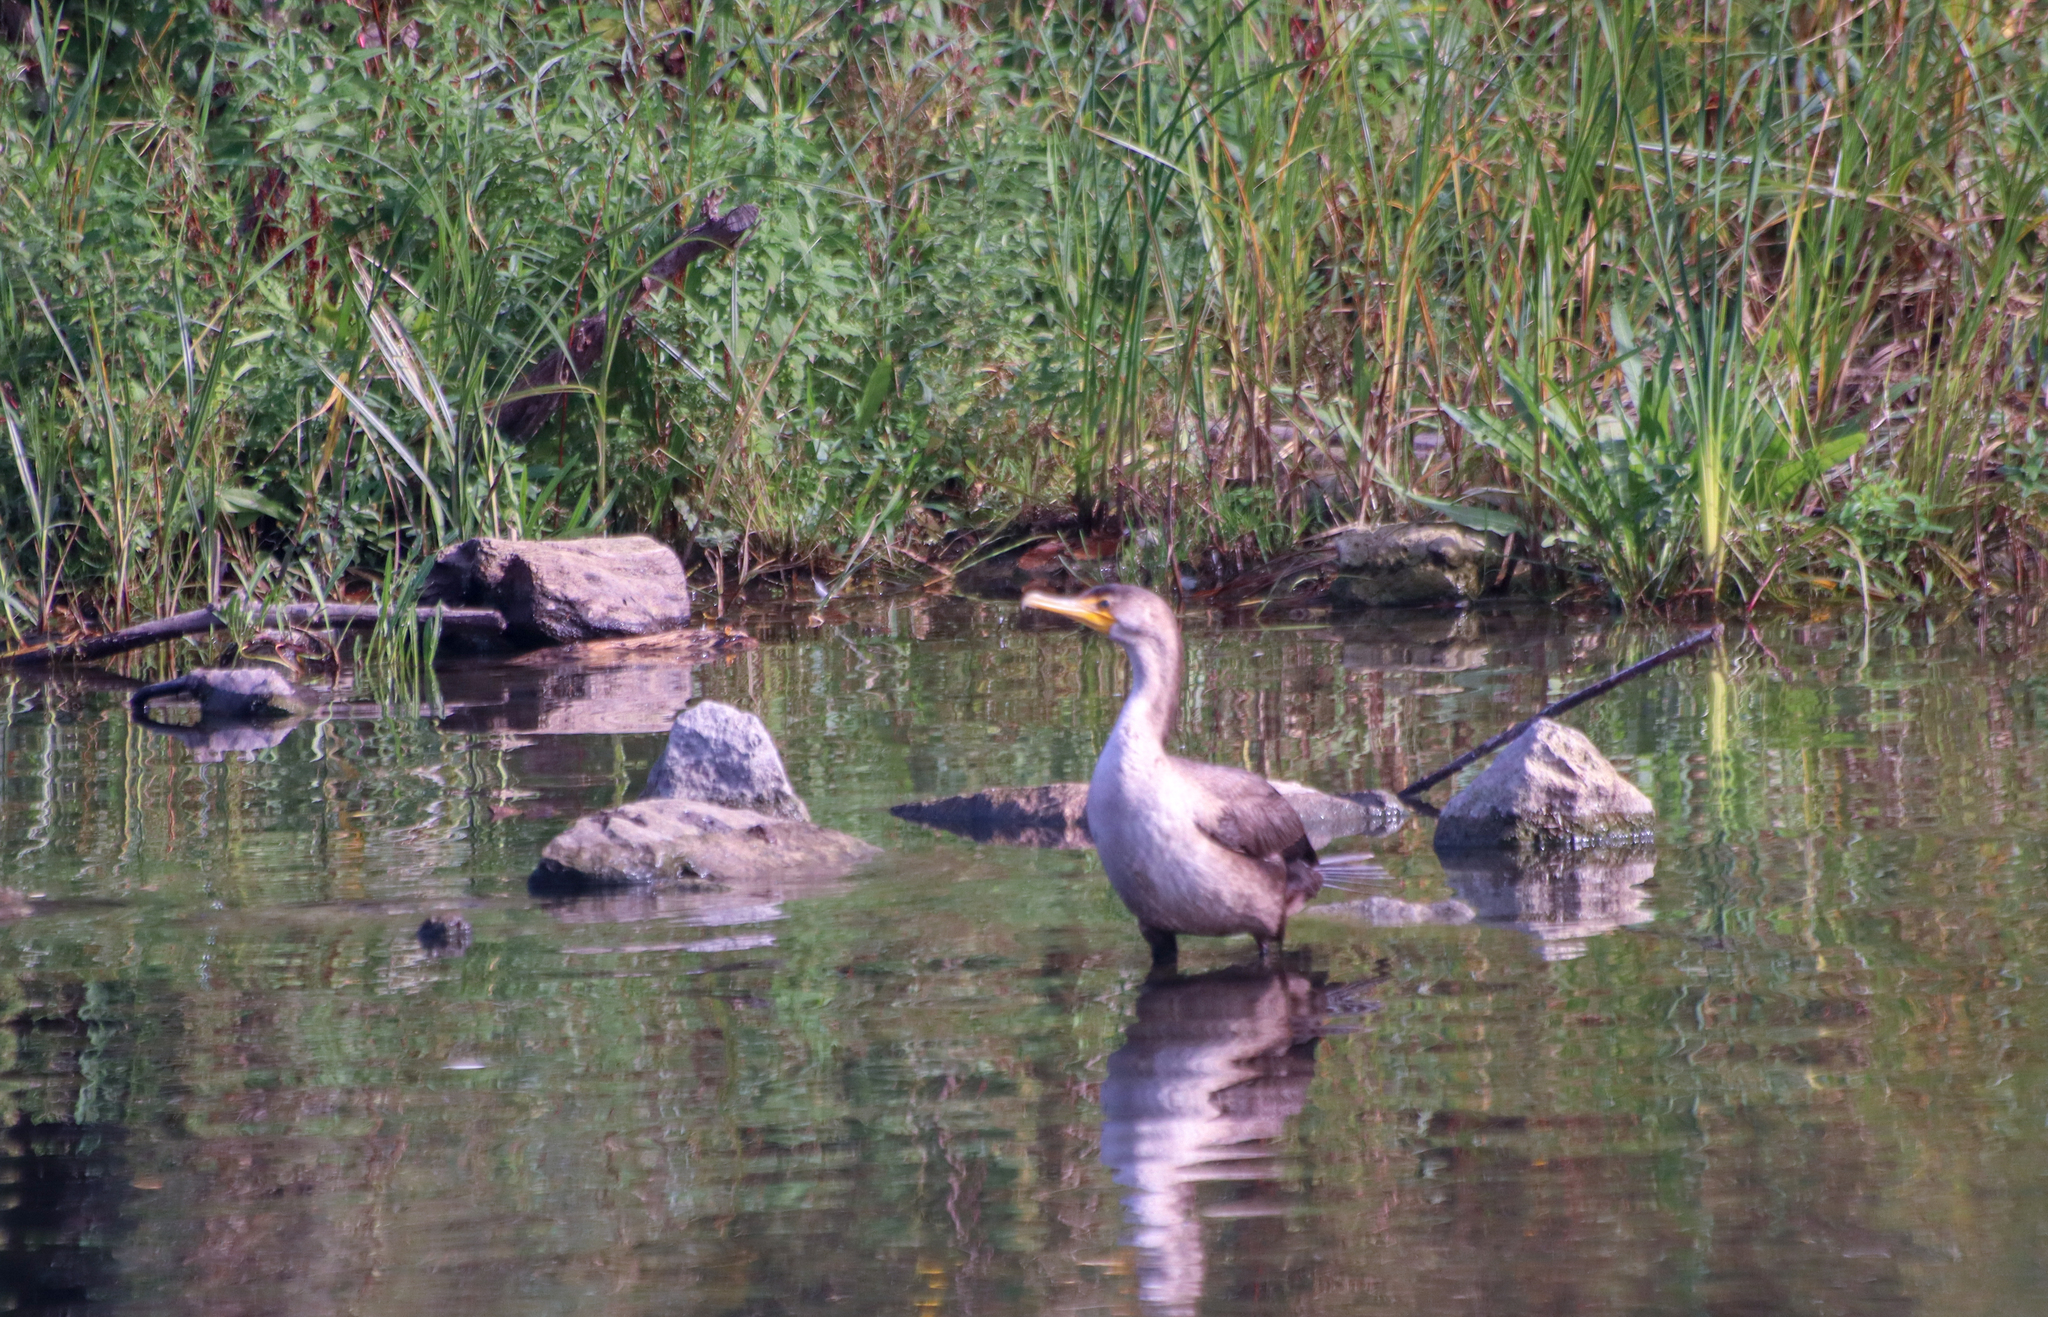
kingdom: Animalia
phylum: Chordata
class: Aves
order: Suliformes
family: Phalacrocoracidae
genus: Phalacrocorax
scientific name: Phalacrocorax auritus
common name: Double-crested cormorant
